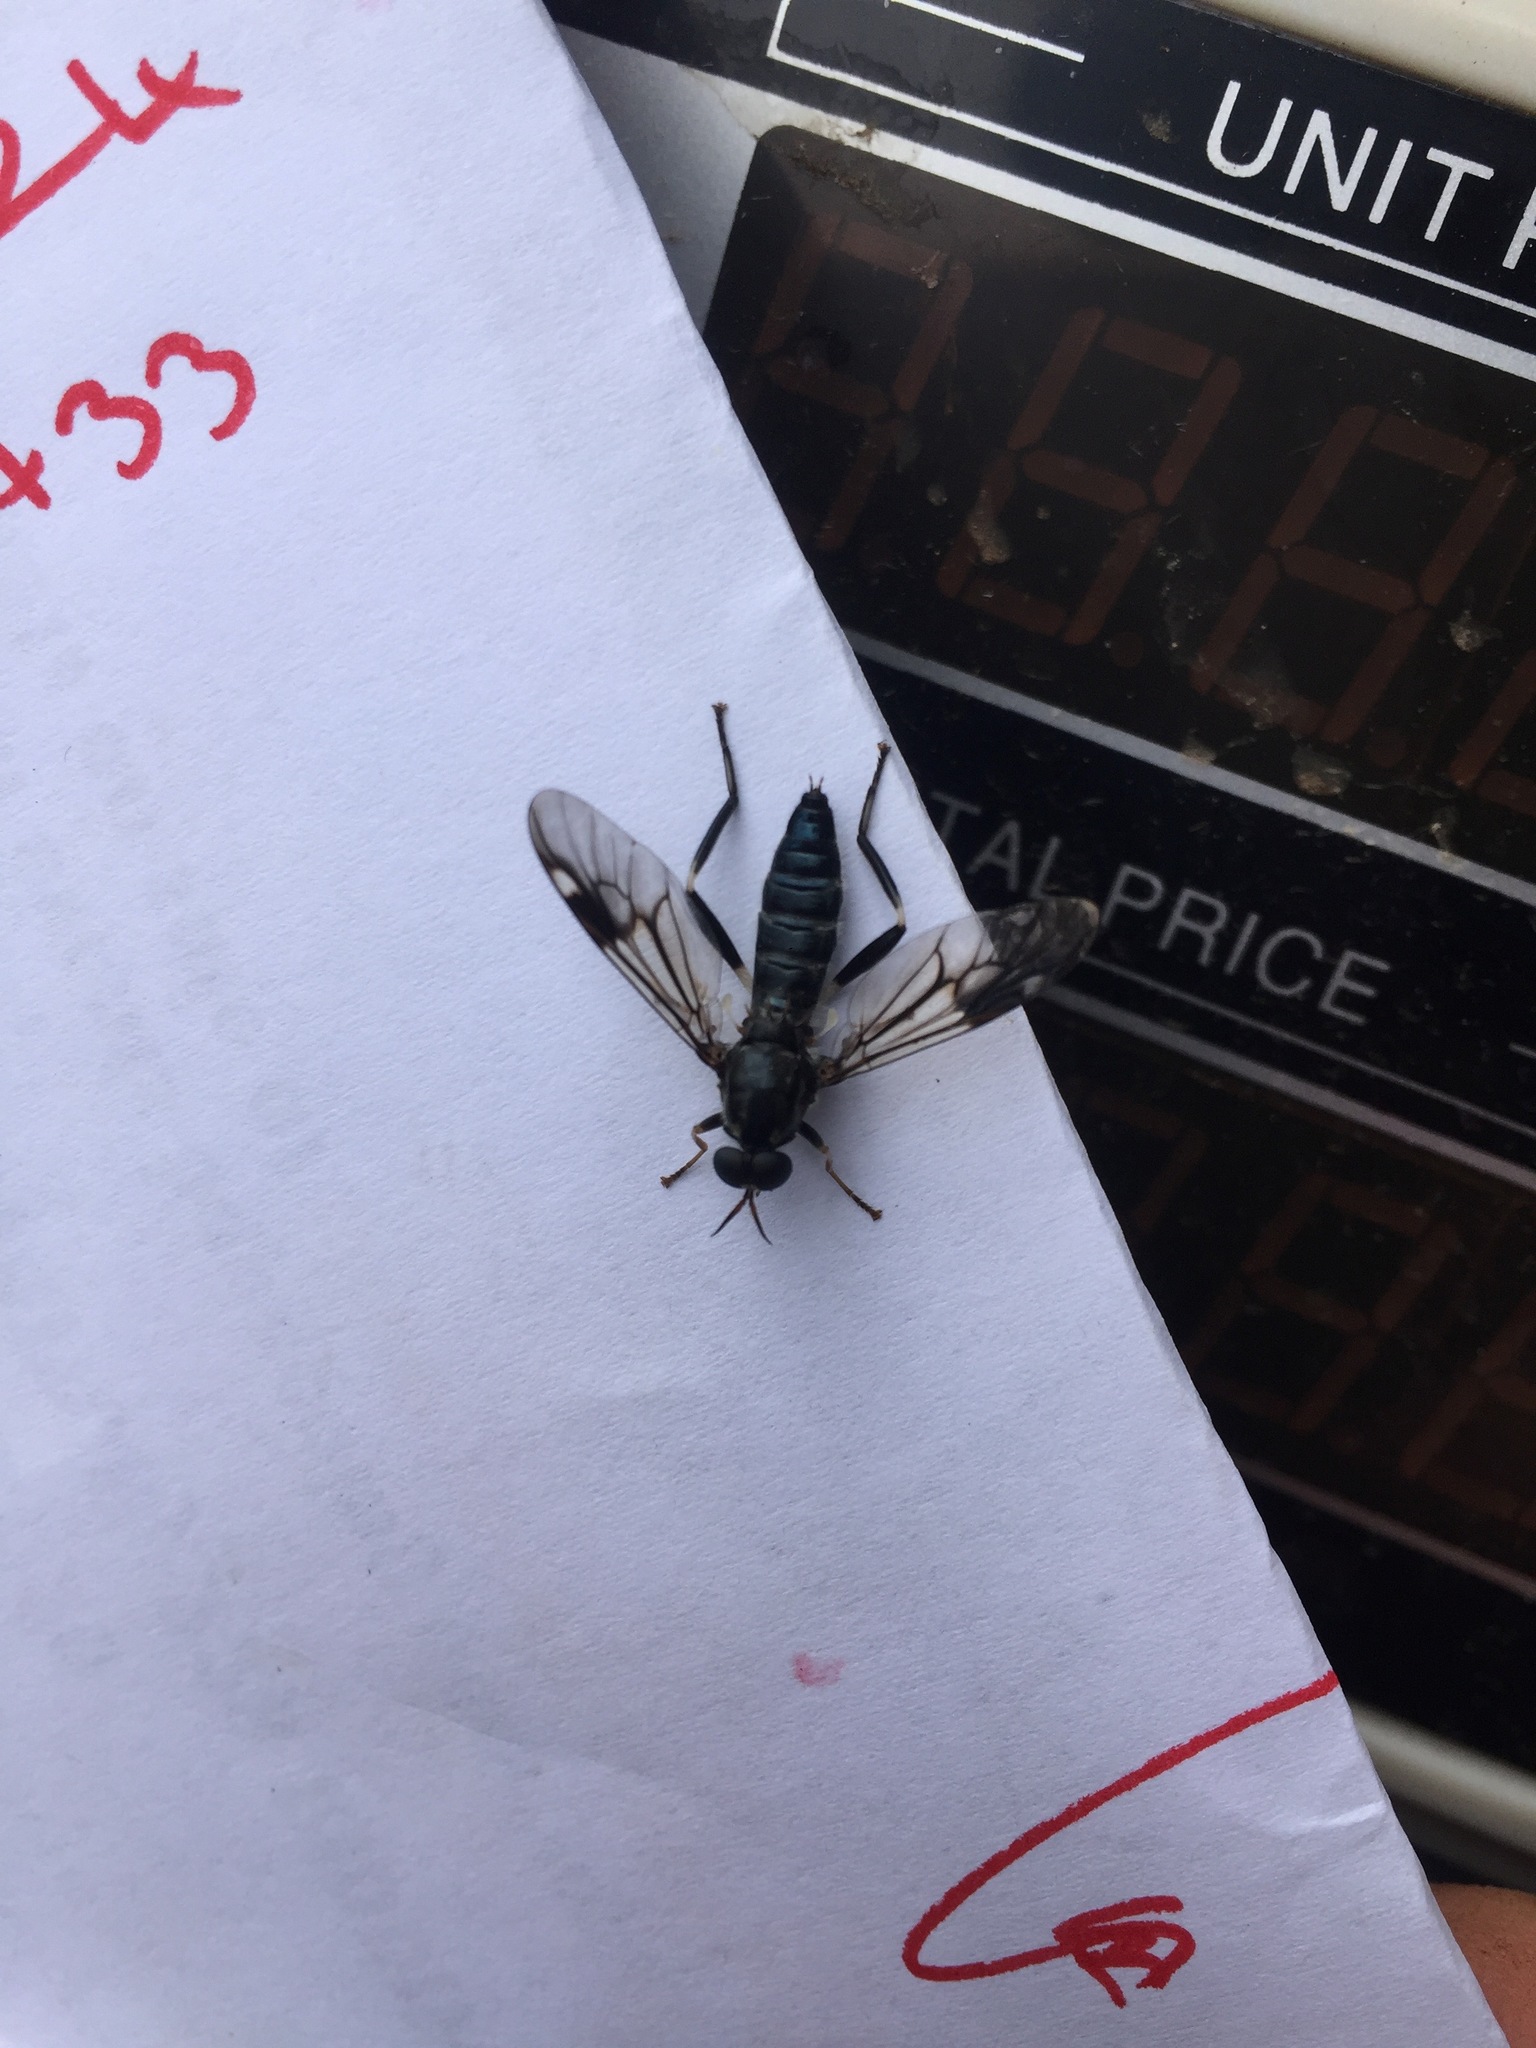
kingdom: Animalia
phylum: Arthropoda
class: Insecta
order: Diptera
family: Stratiomyidae
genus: Exaireta
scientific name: Exaireta spinigera
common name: Blue soldier fly
